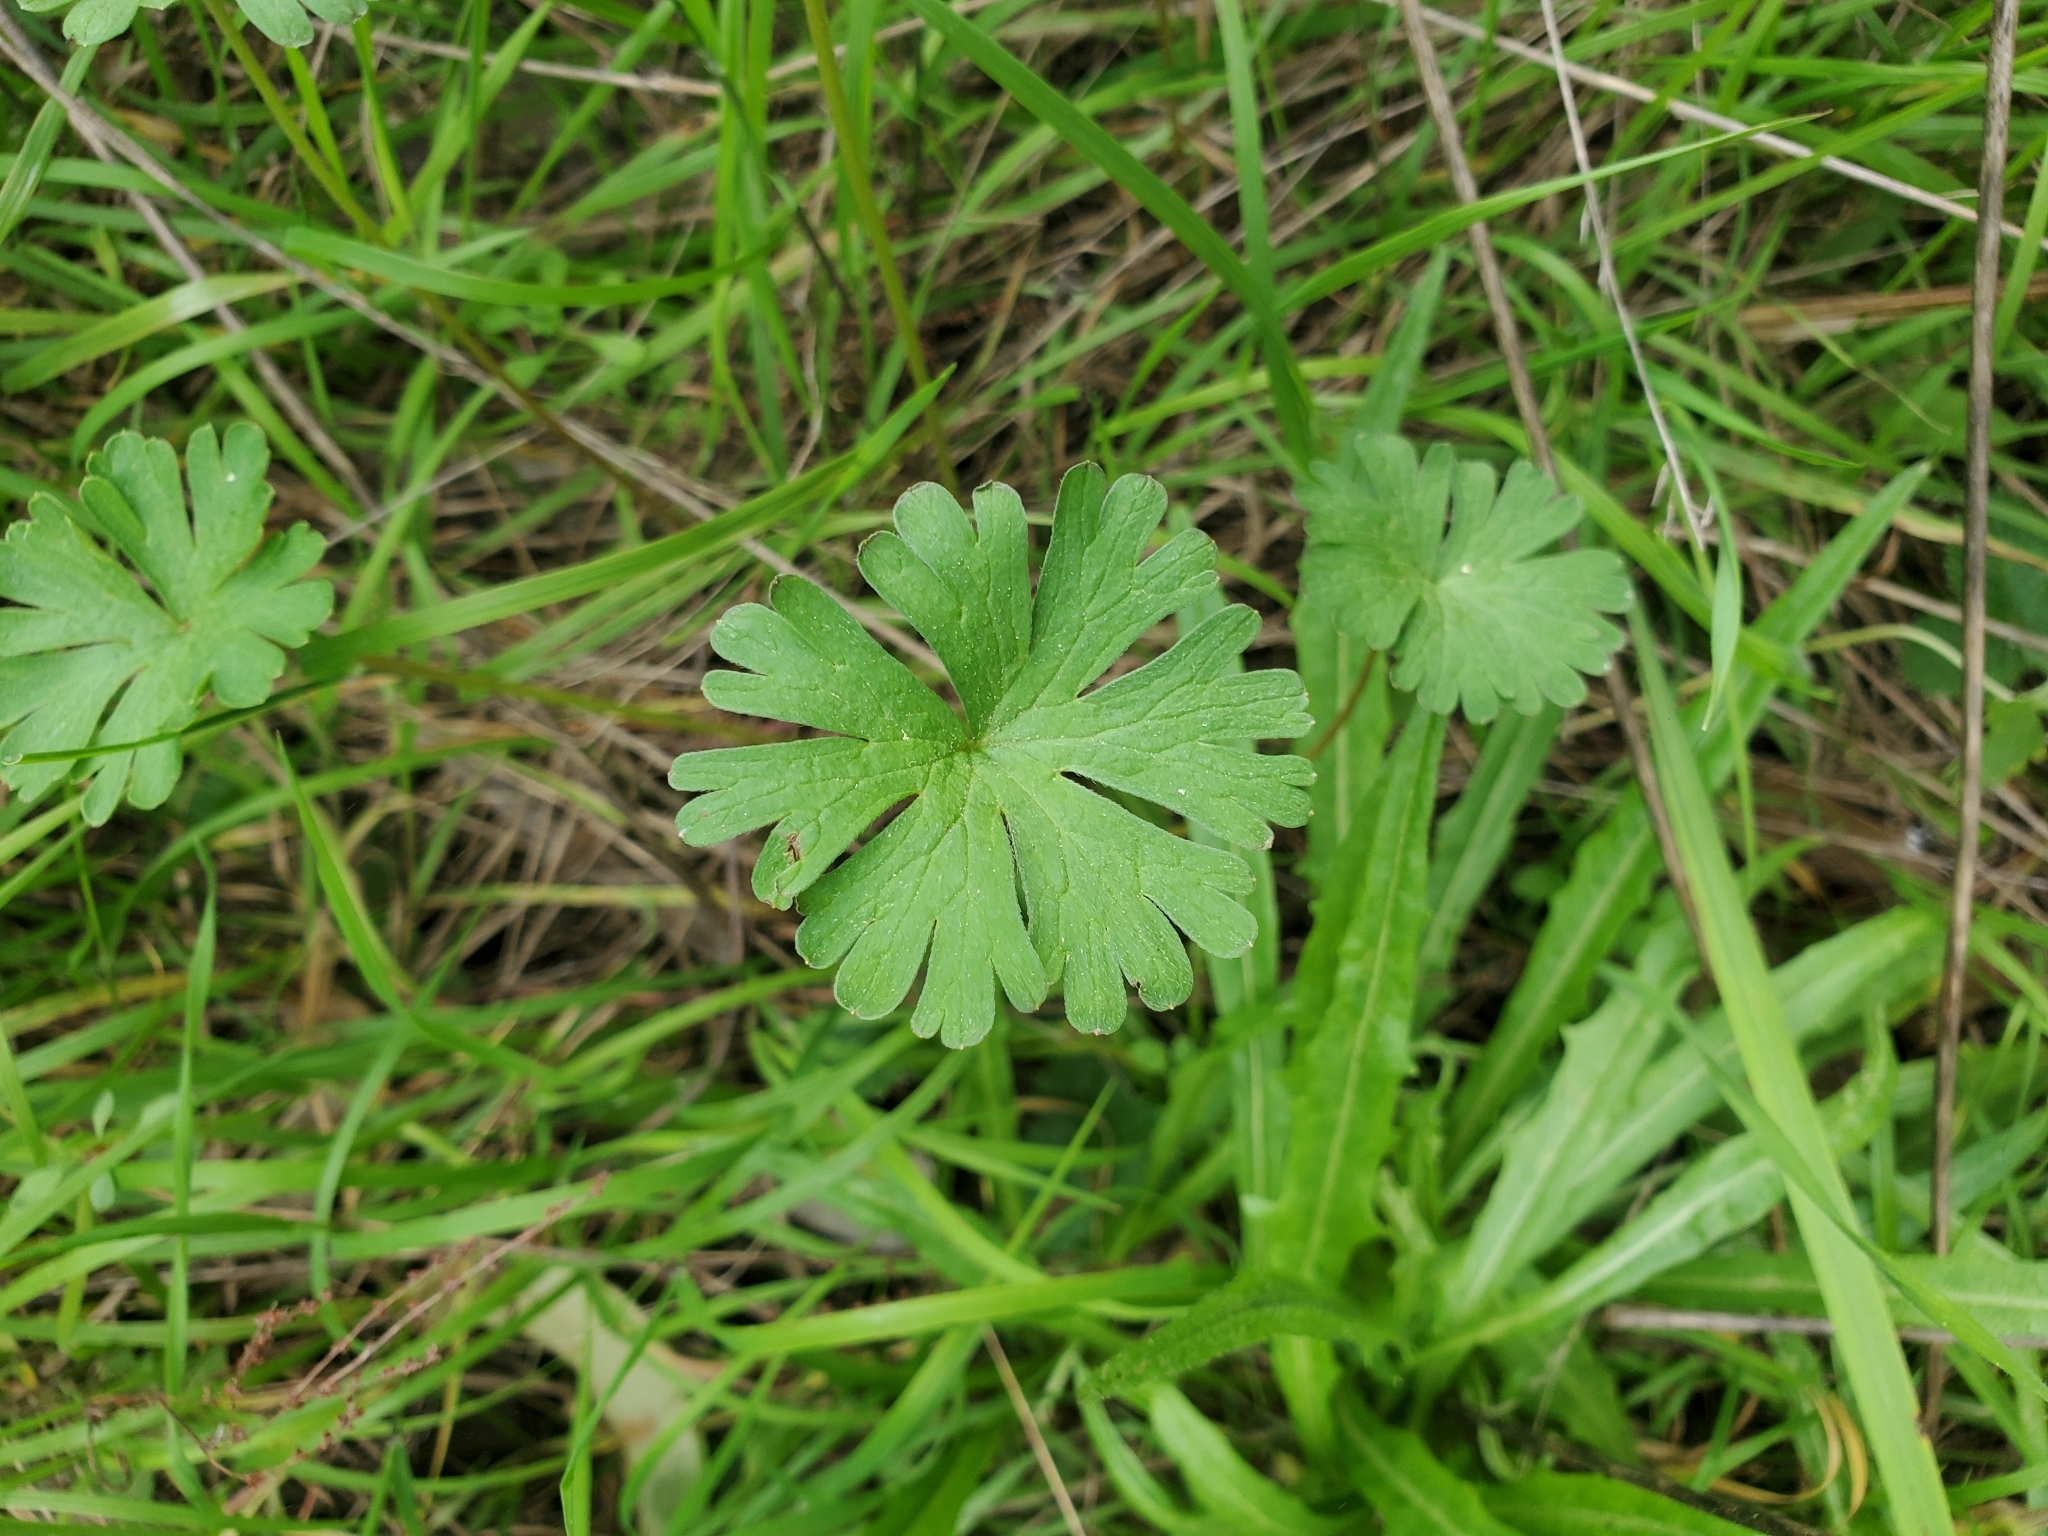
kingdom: Plantae
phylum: Tracheophyta
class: Magnoliopsida
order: Geraniales
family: Geraniaceae
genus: Geranium
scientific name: Geranium
